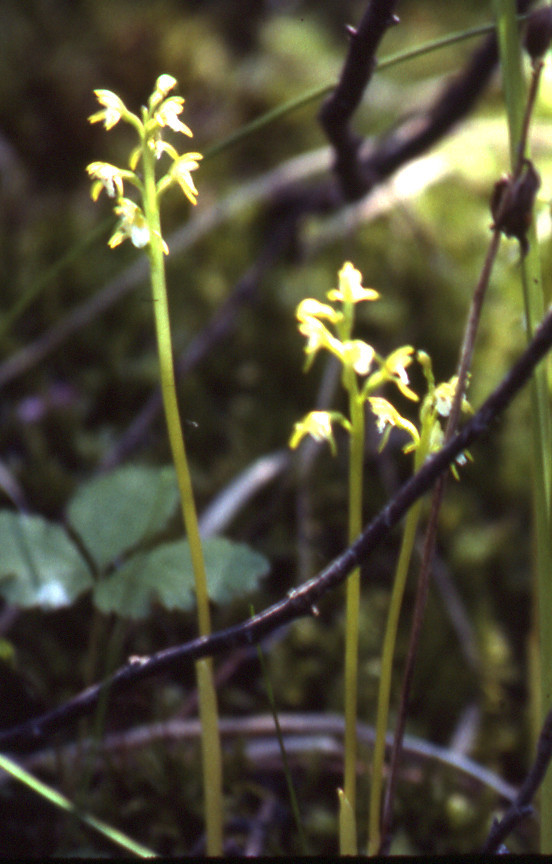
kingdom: Plantae
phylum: Tracheophyta
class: Liliopsida
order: Asparagales
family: Orchidaceae
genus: Corallorhiza
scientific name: Corallorhiza trifida
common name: Yellow coralroot
